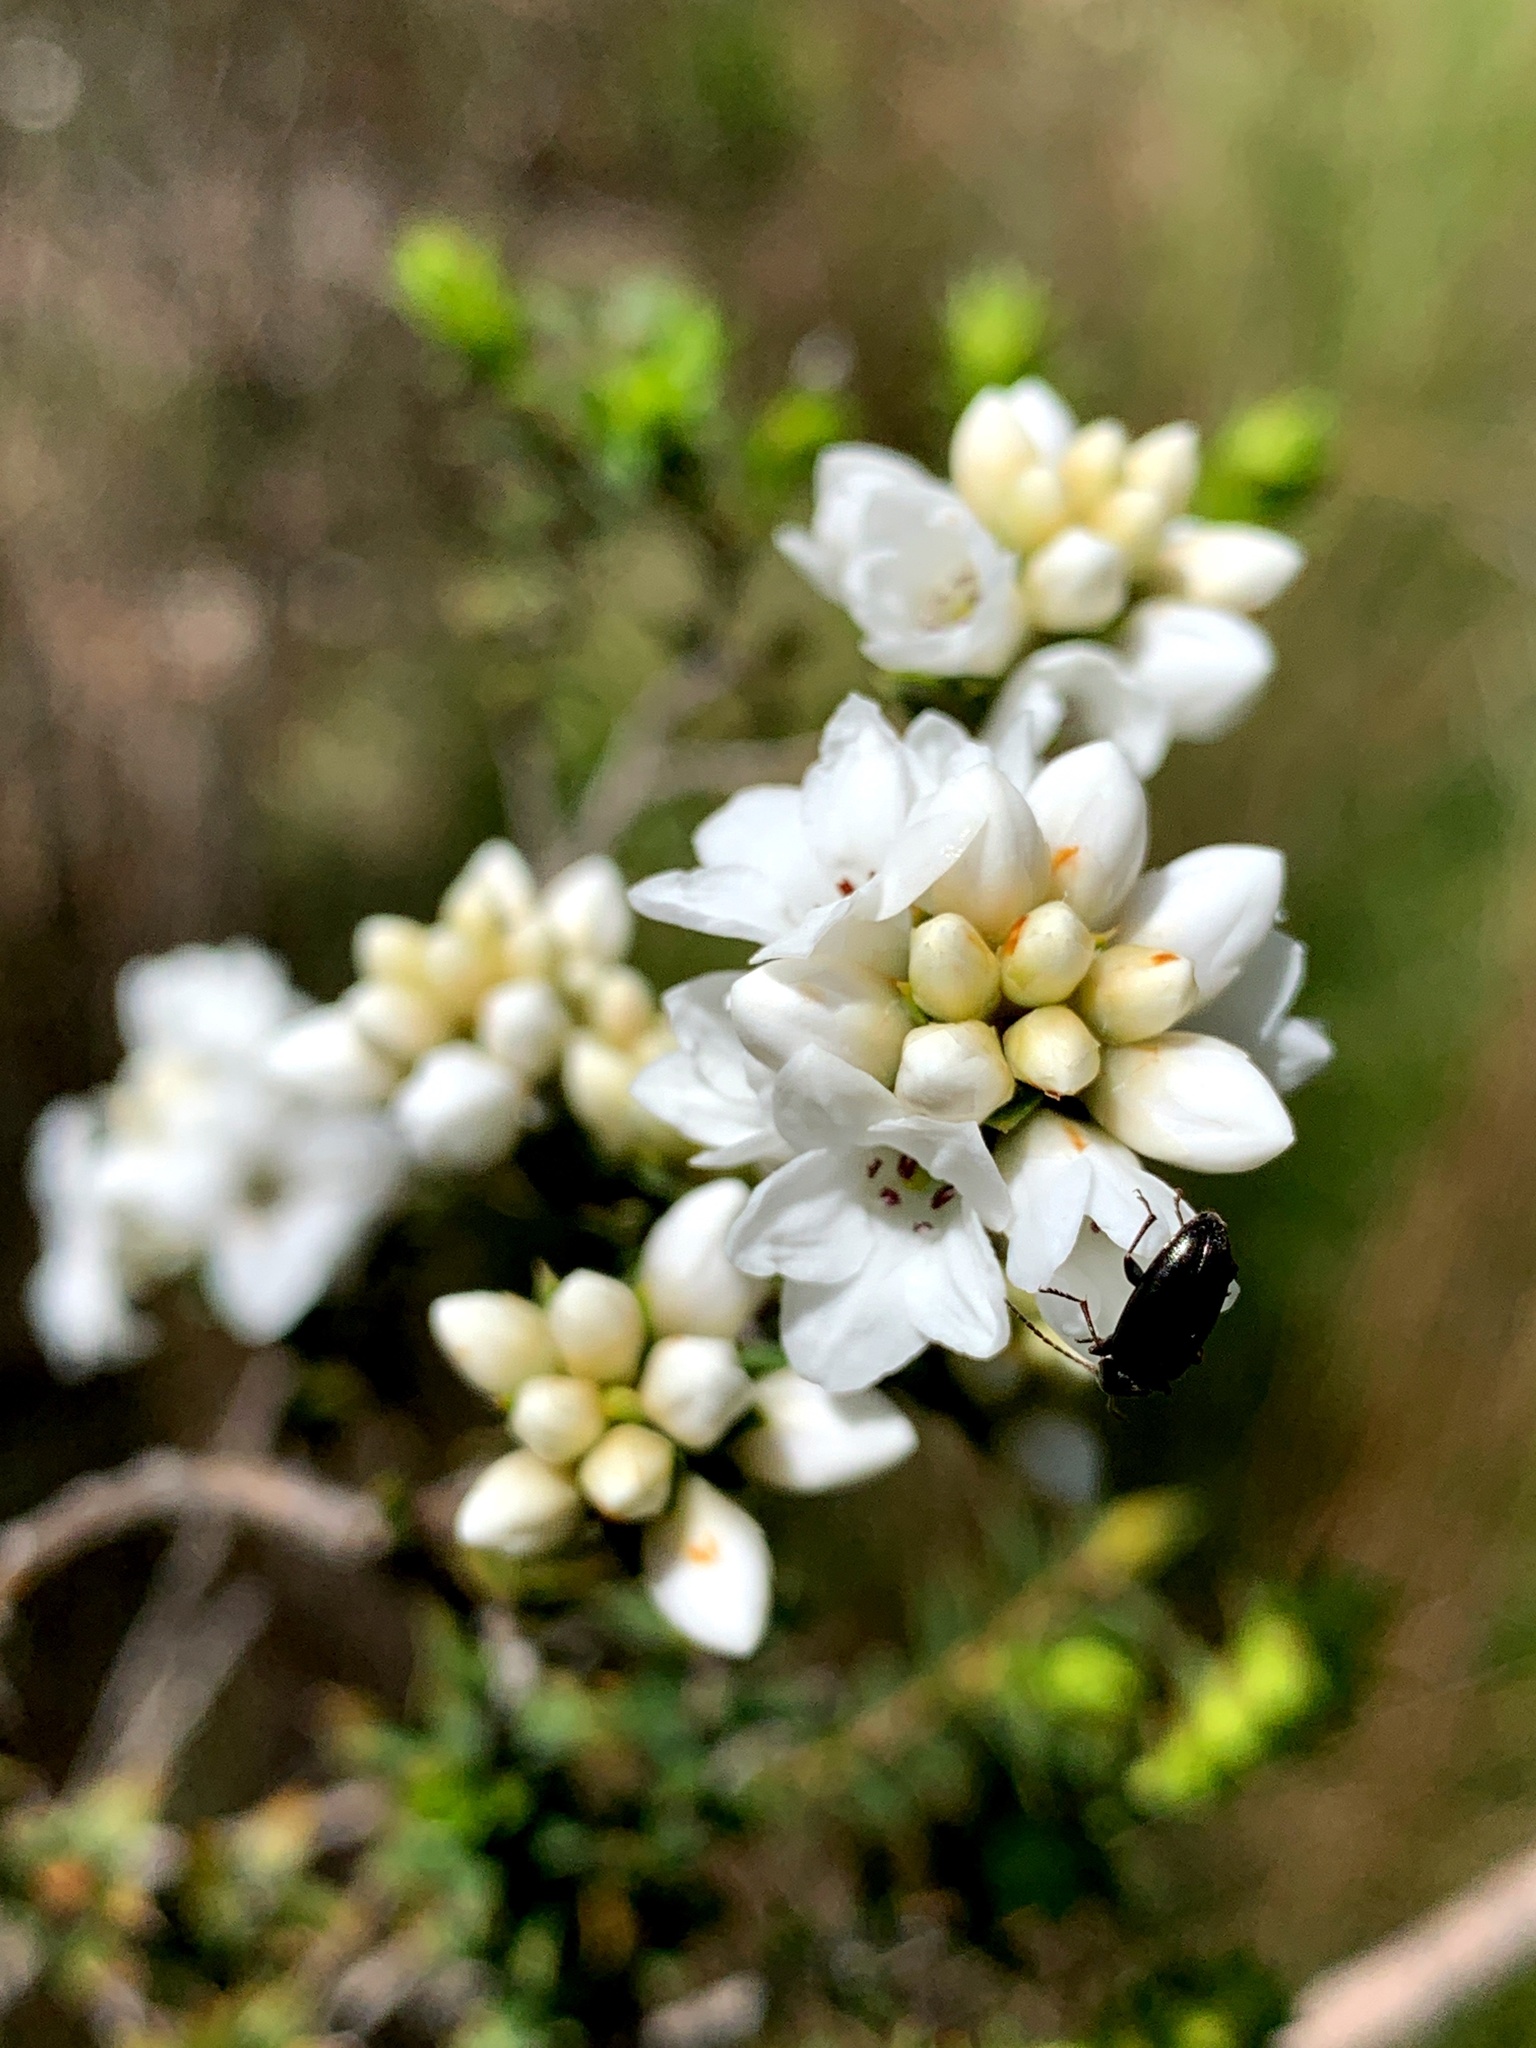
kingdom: Plantae
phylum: Tracheophyta
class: Magnoliopsida
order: Ericales
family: Ericaceae
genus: Epacris
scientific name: Epacris breviflora
